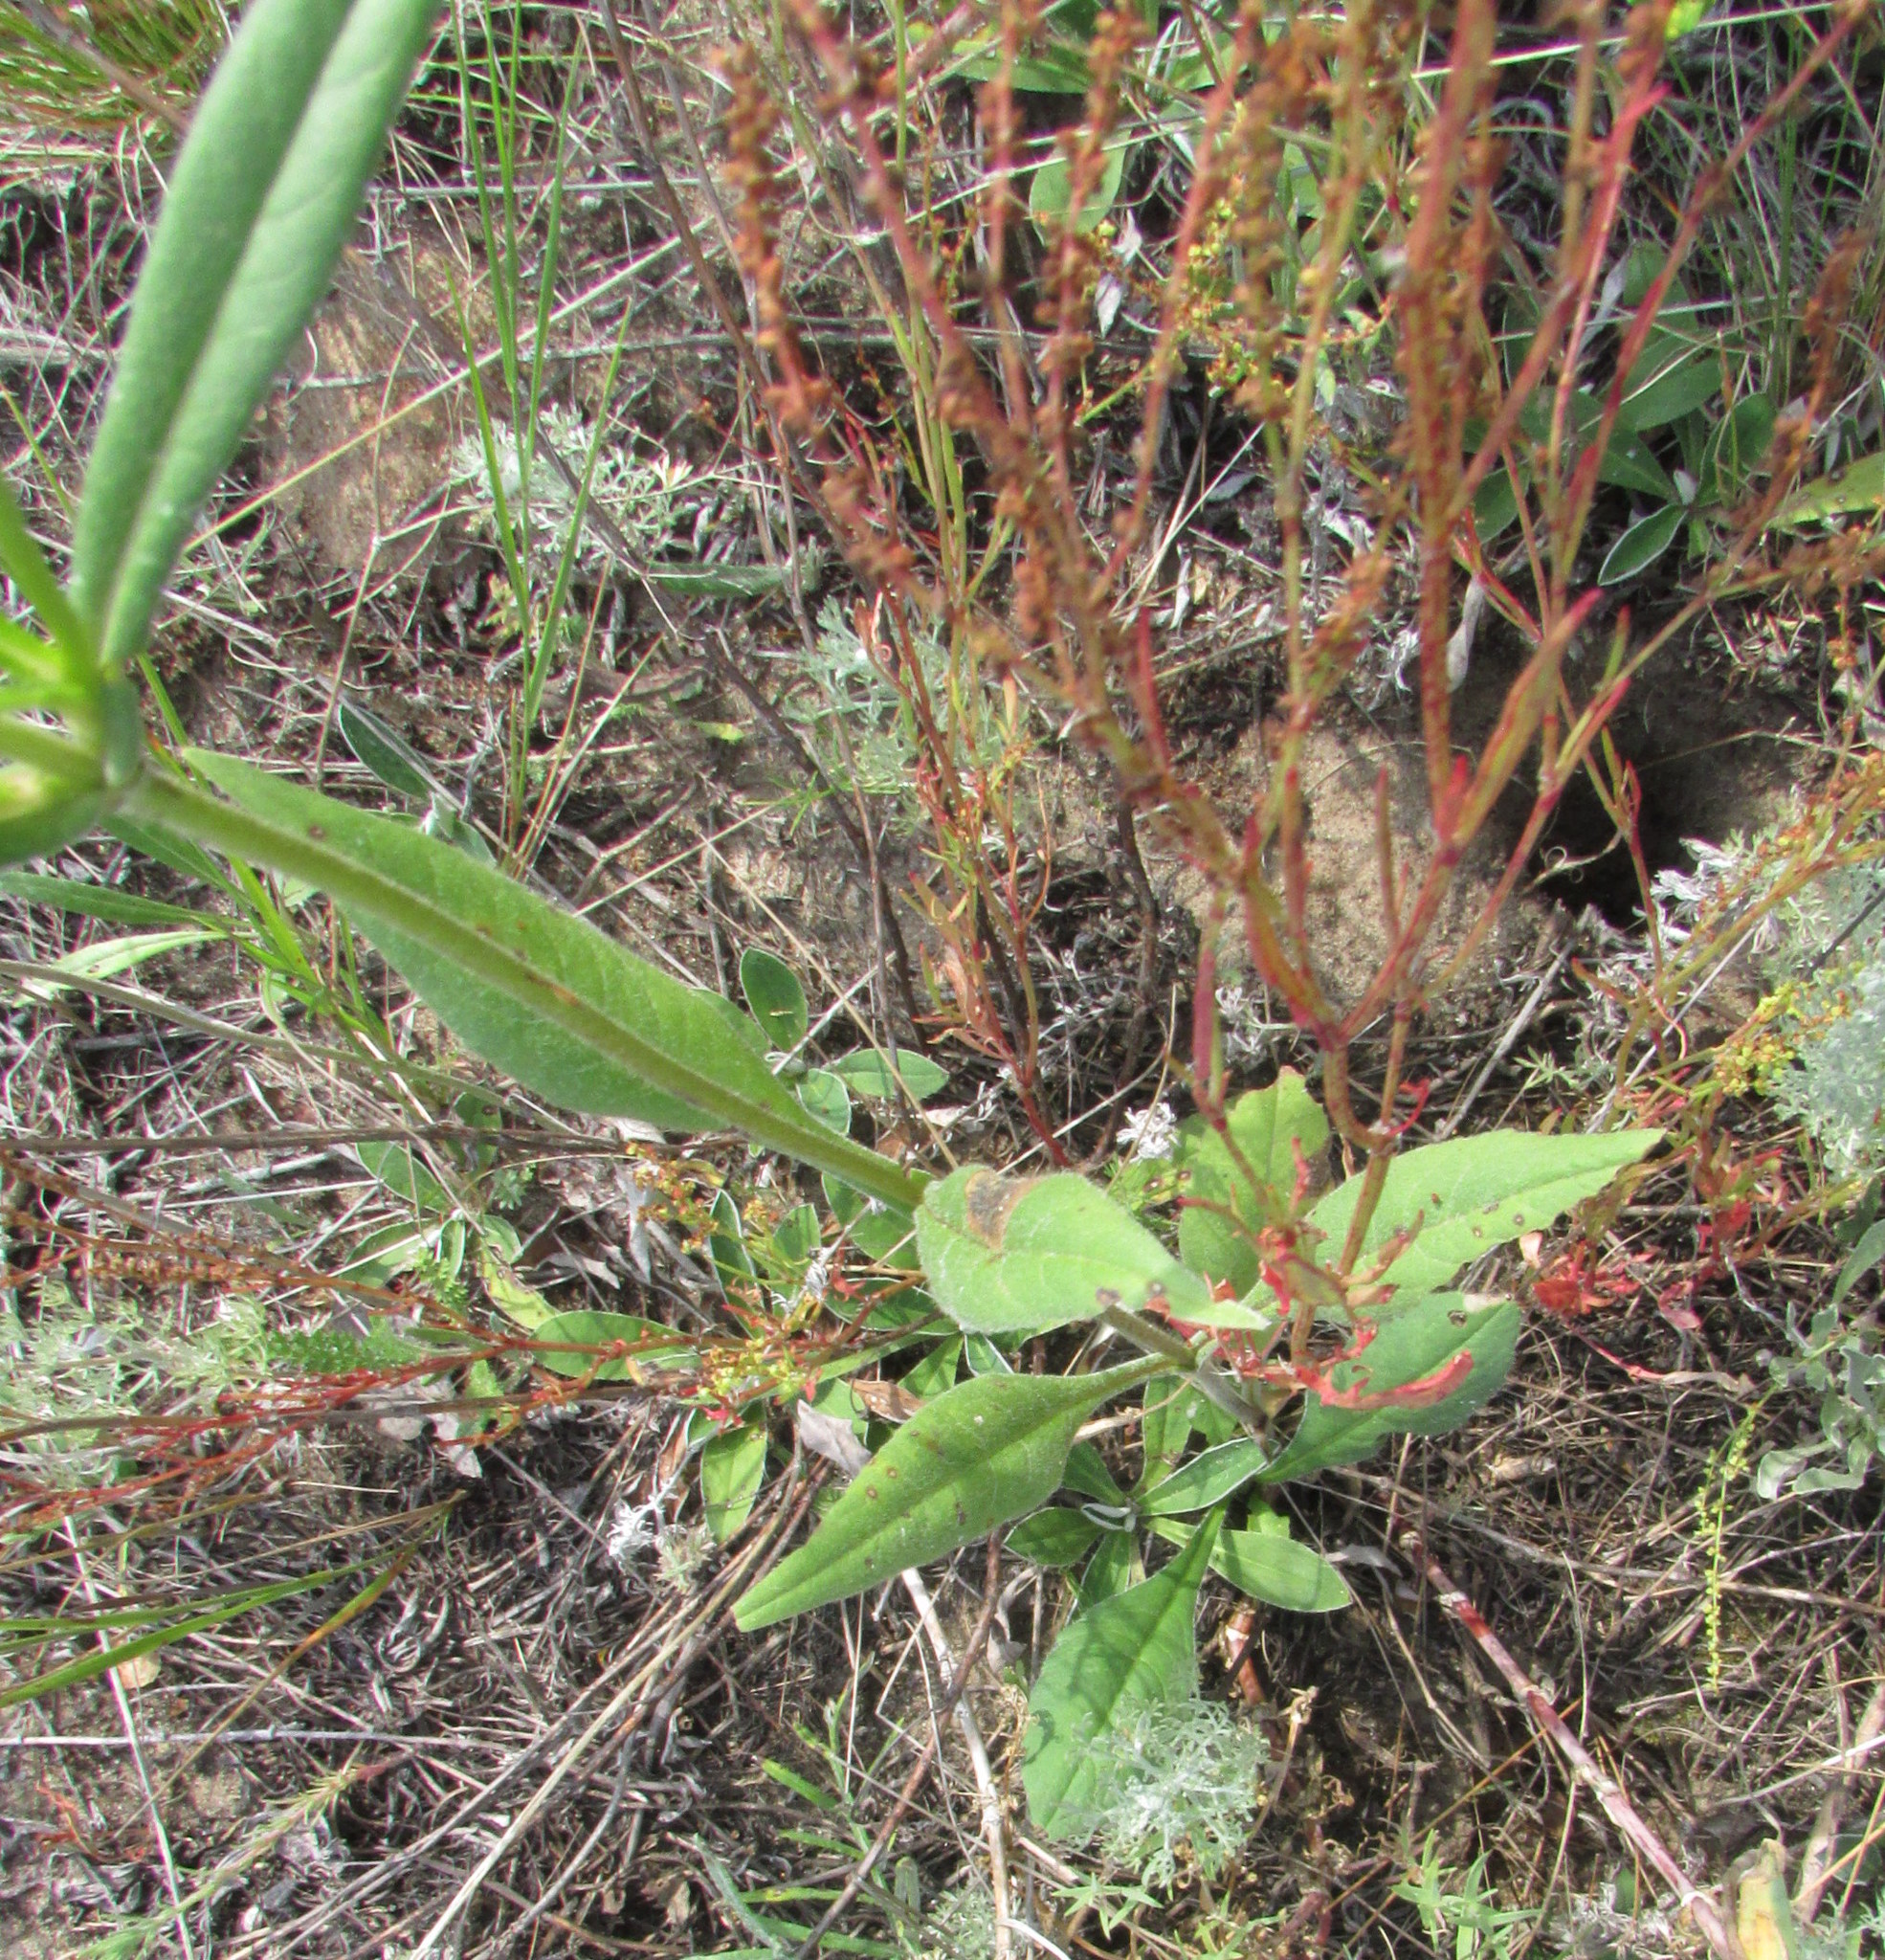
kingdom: Plantae
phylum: Tracheophyta
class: Magnoliopsida
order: Dipsacales
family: Caprifoliaceae
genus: Knautia
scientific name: Knautia arvensis
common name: Field scabiosa
